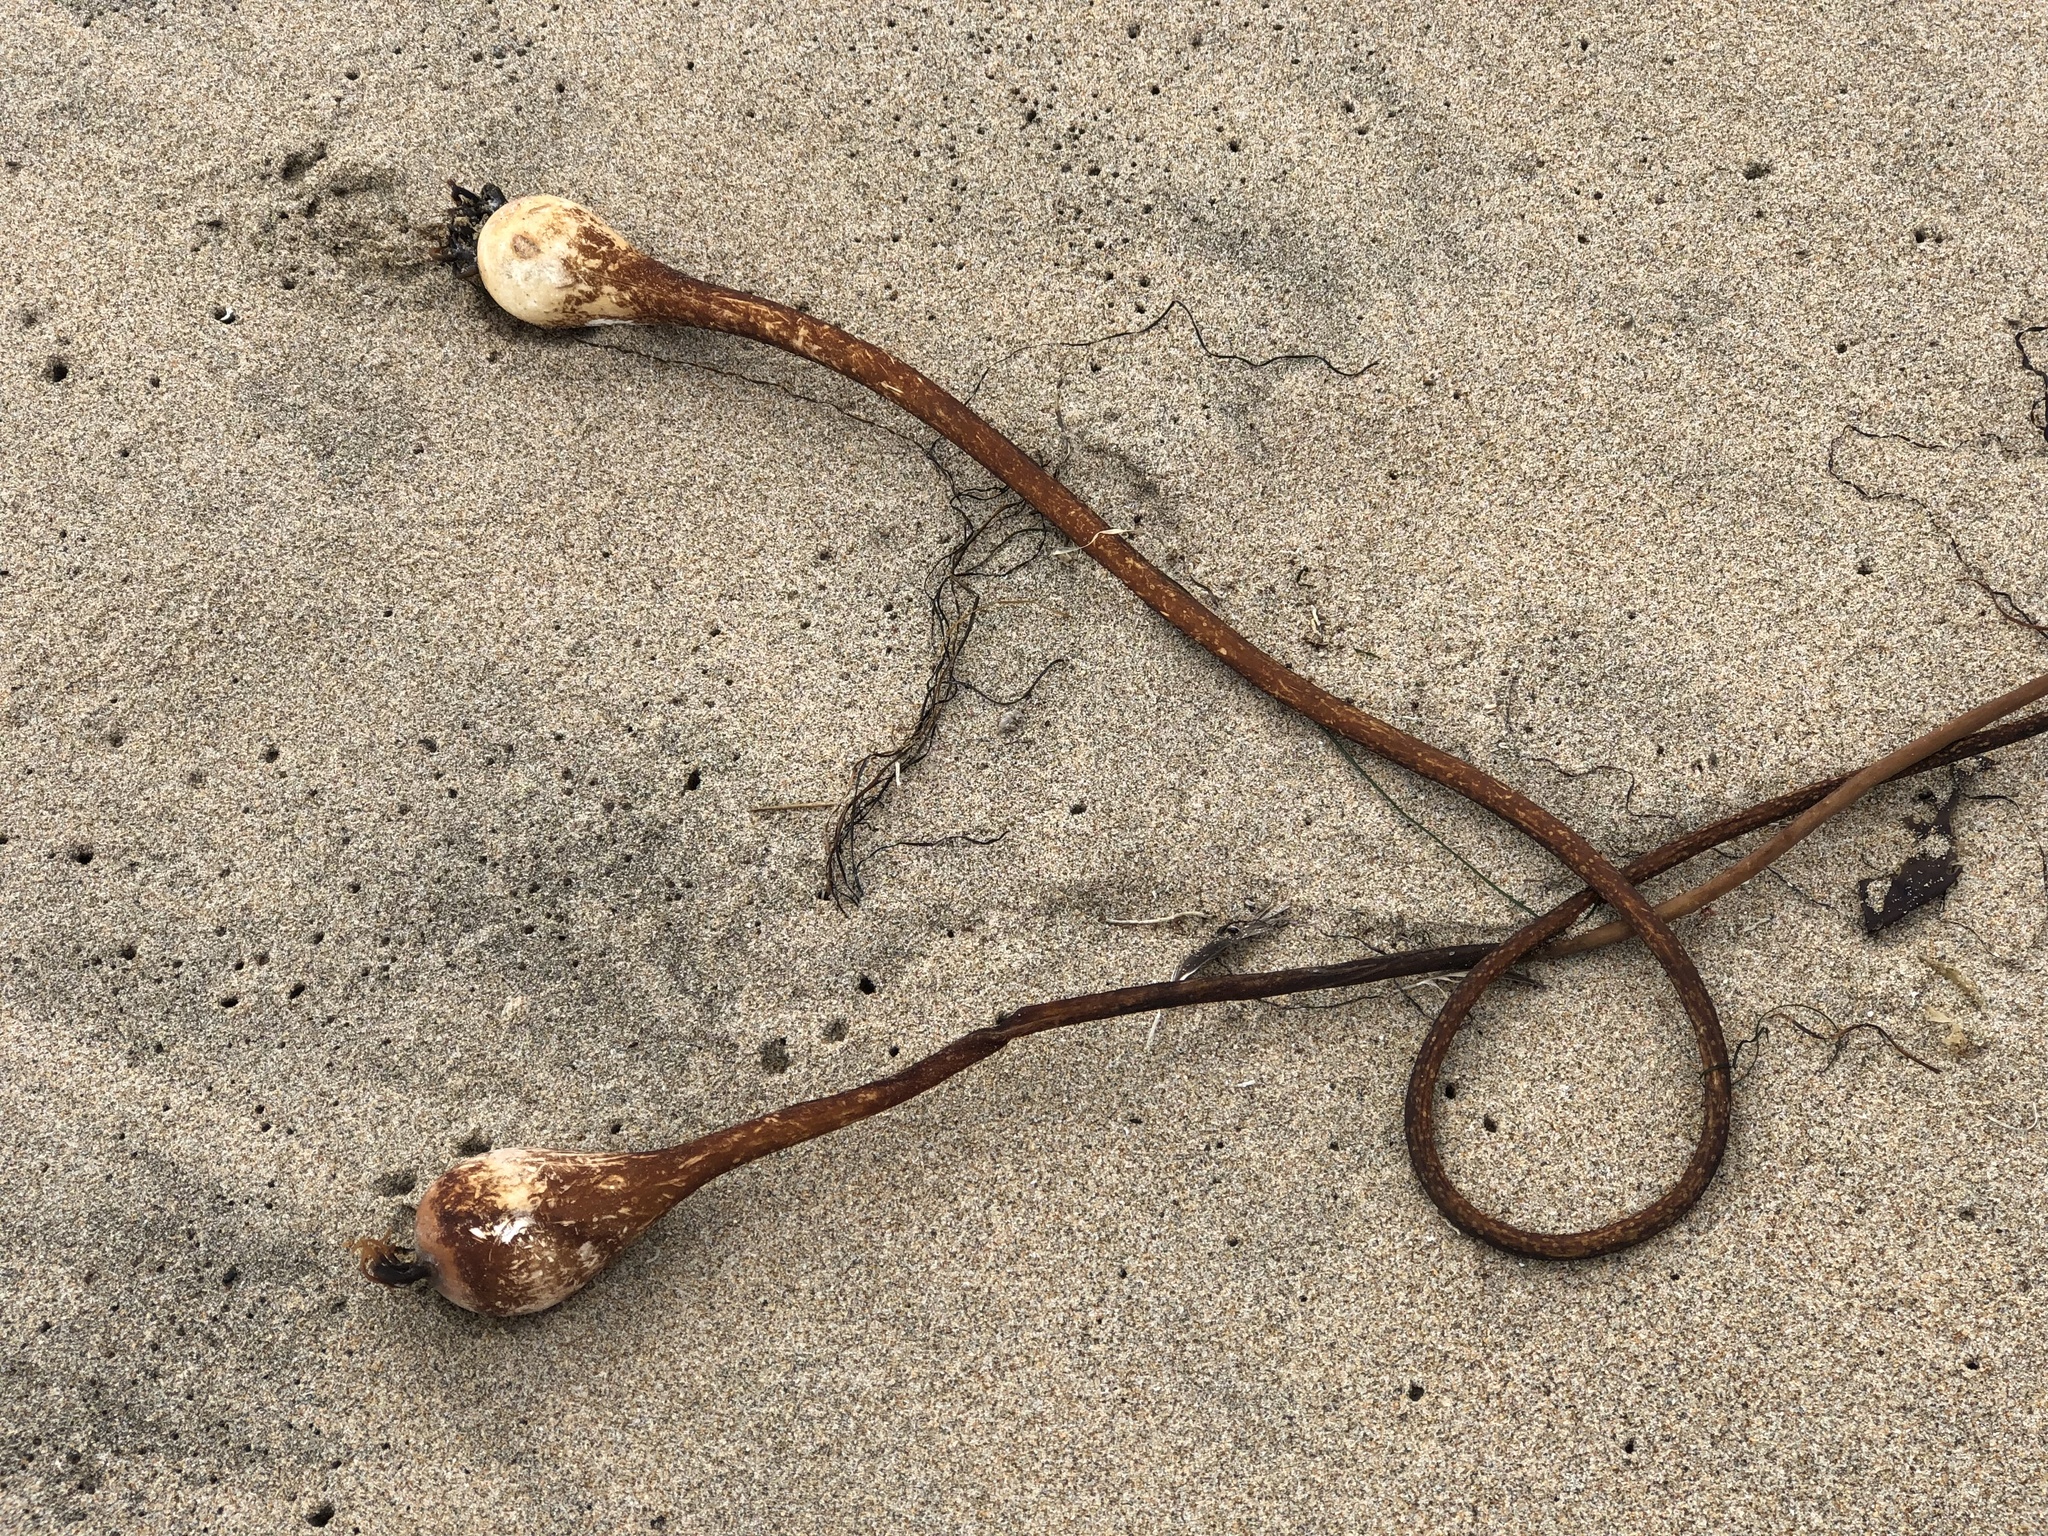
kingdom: Chromista
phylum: Ochrophyta
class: Phaeophyceae
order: Laminariales
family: Laminariaceae
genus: Nereocystis
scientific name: Nereocystis luetkeana
